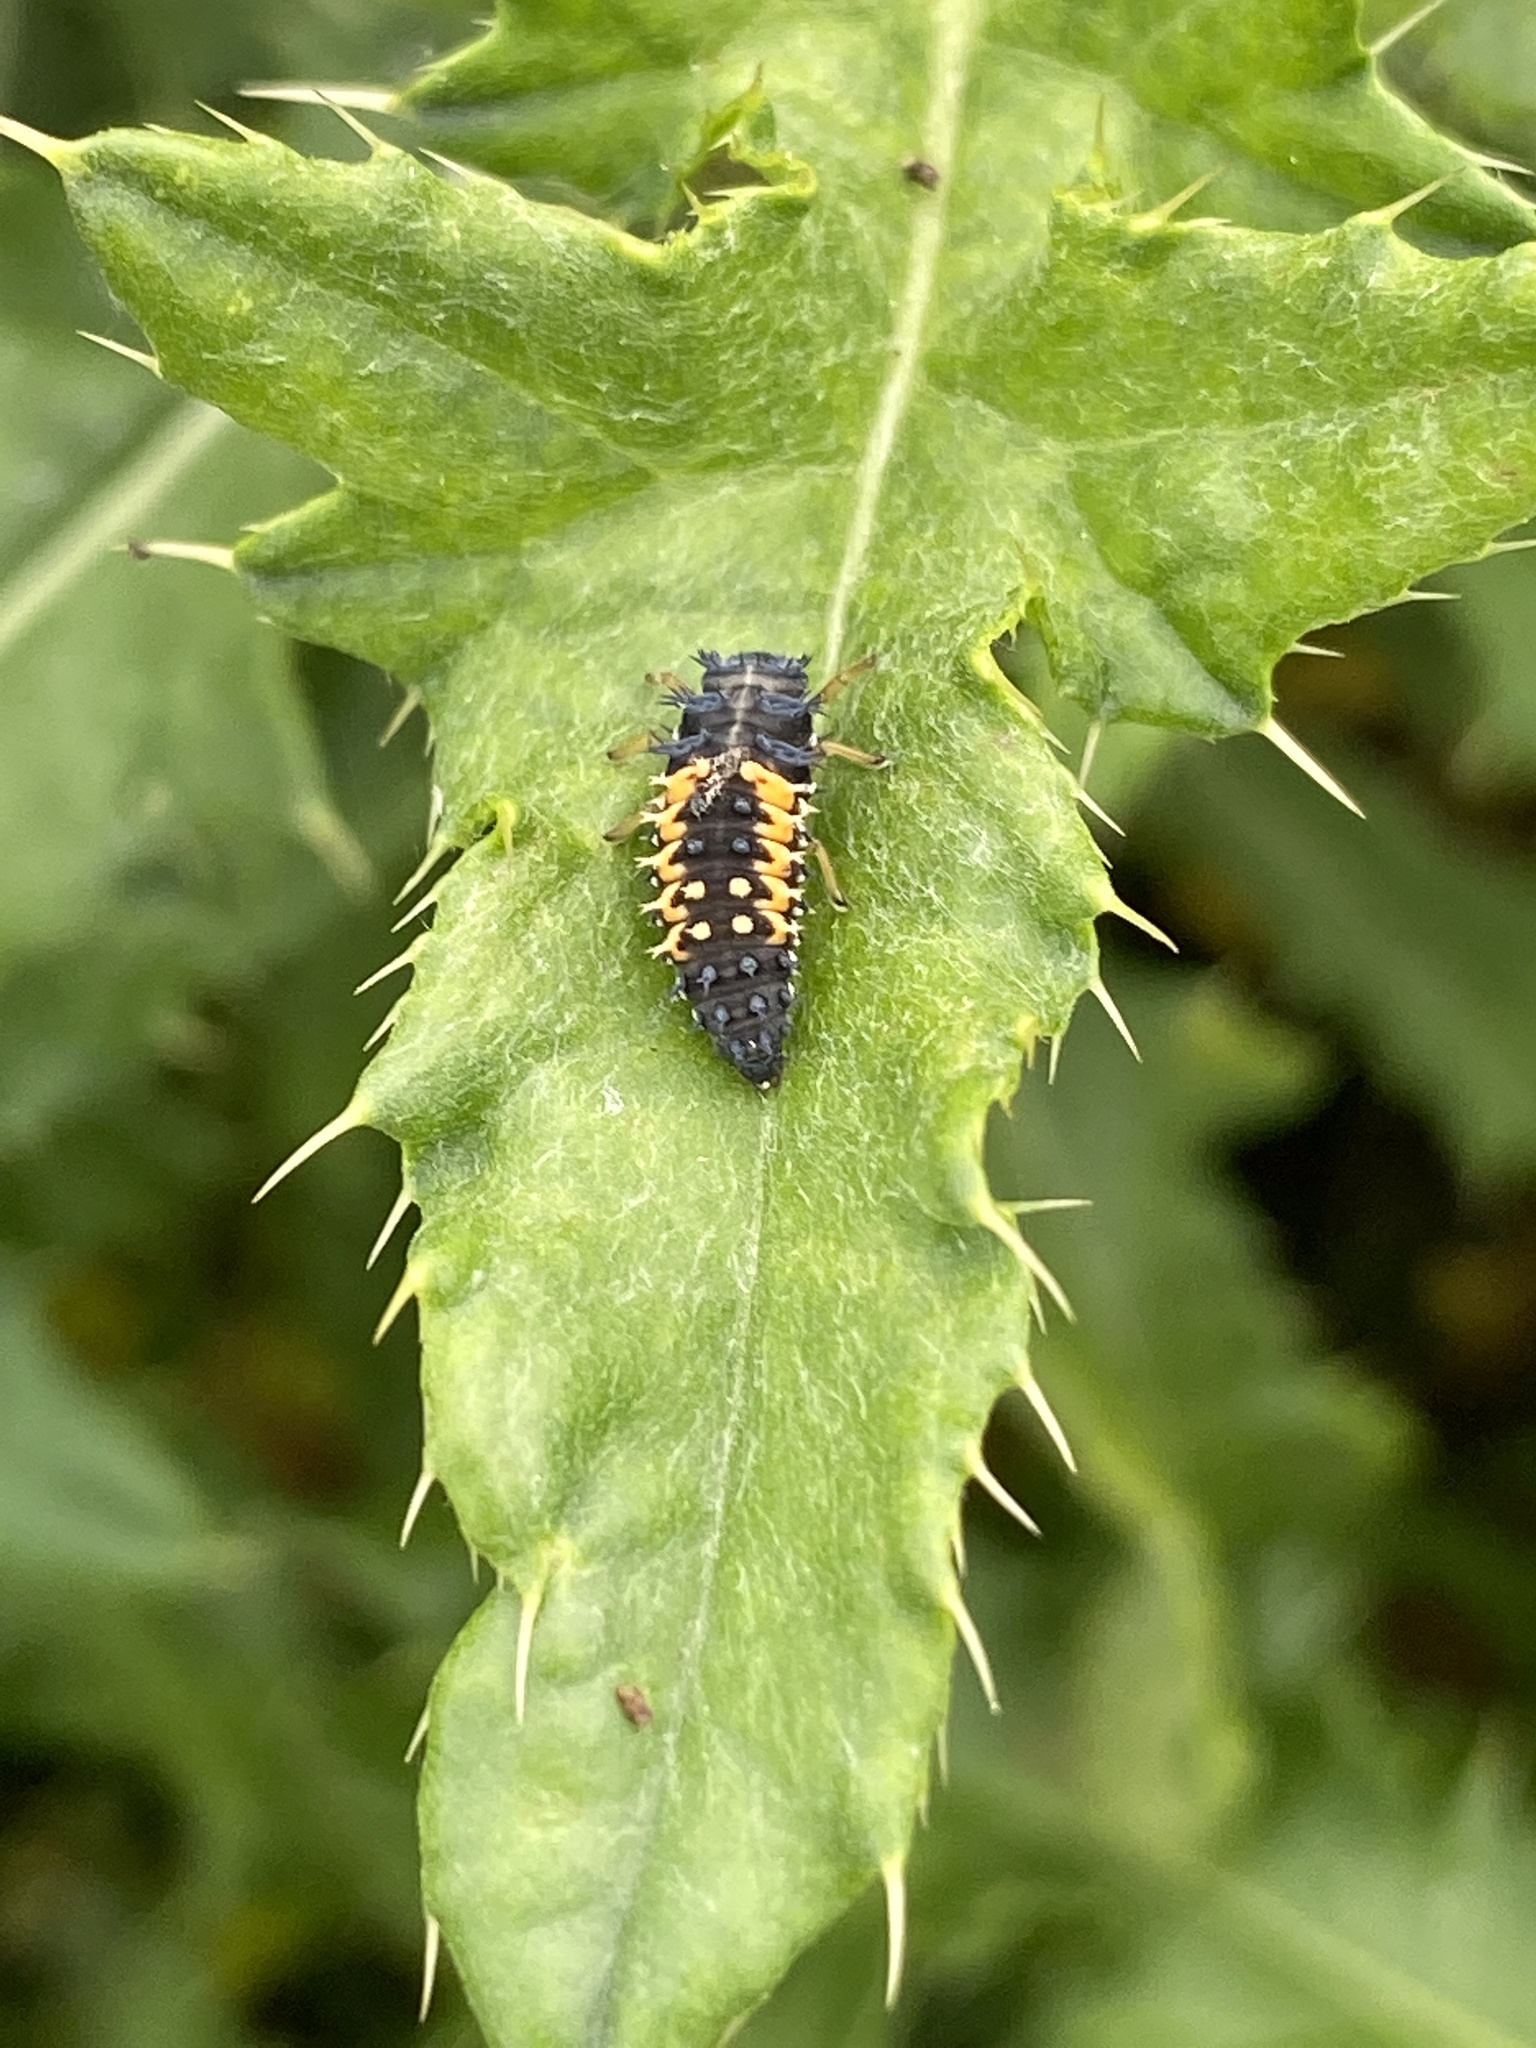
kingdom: Animalia
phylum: Arthropoda
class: Insecta
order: Coleoptera
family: Coccinellidae
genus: Harmonia
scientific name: Harmonia axyridis
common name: Harlequin ladybird
